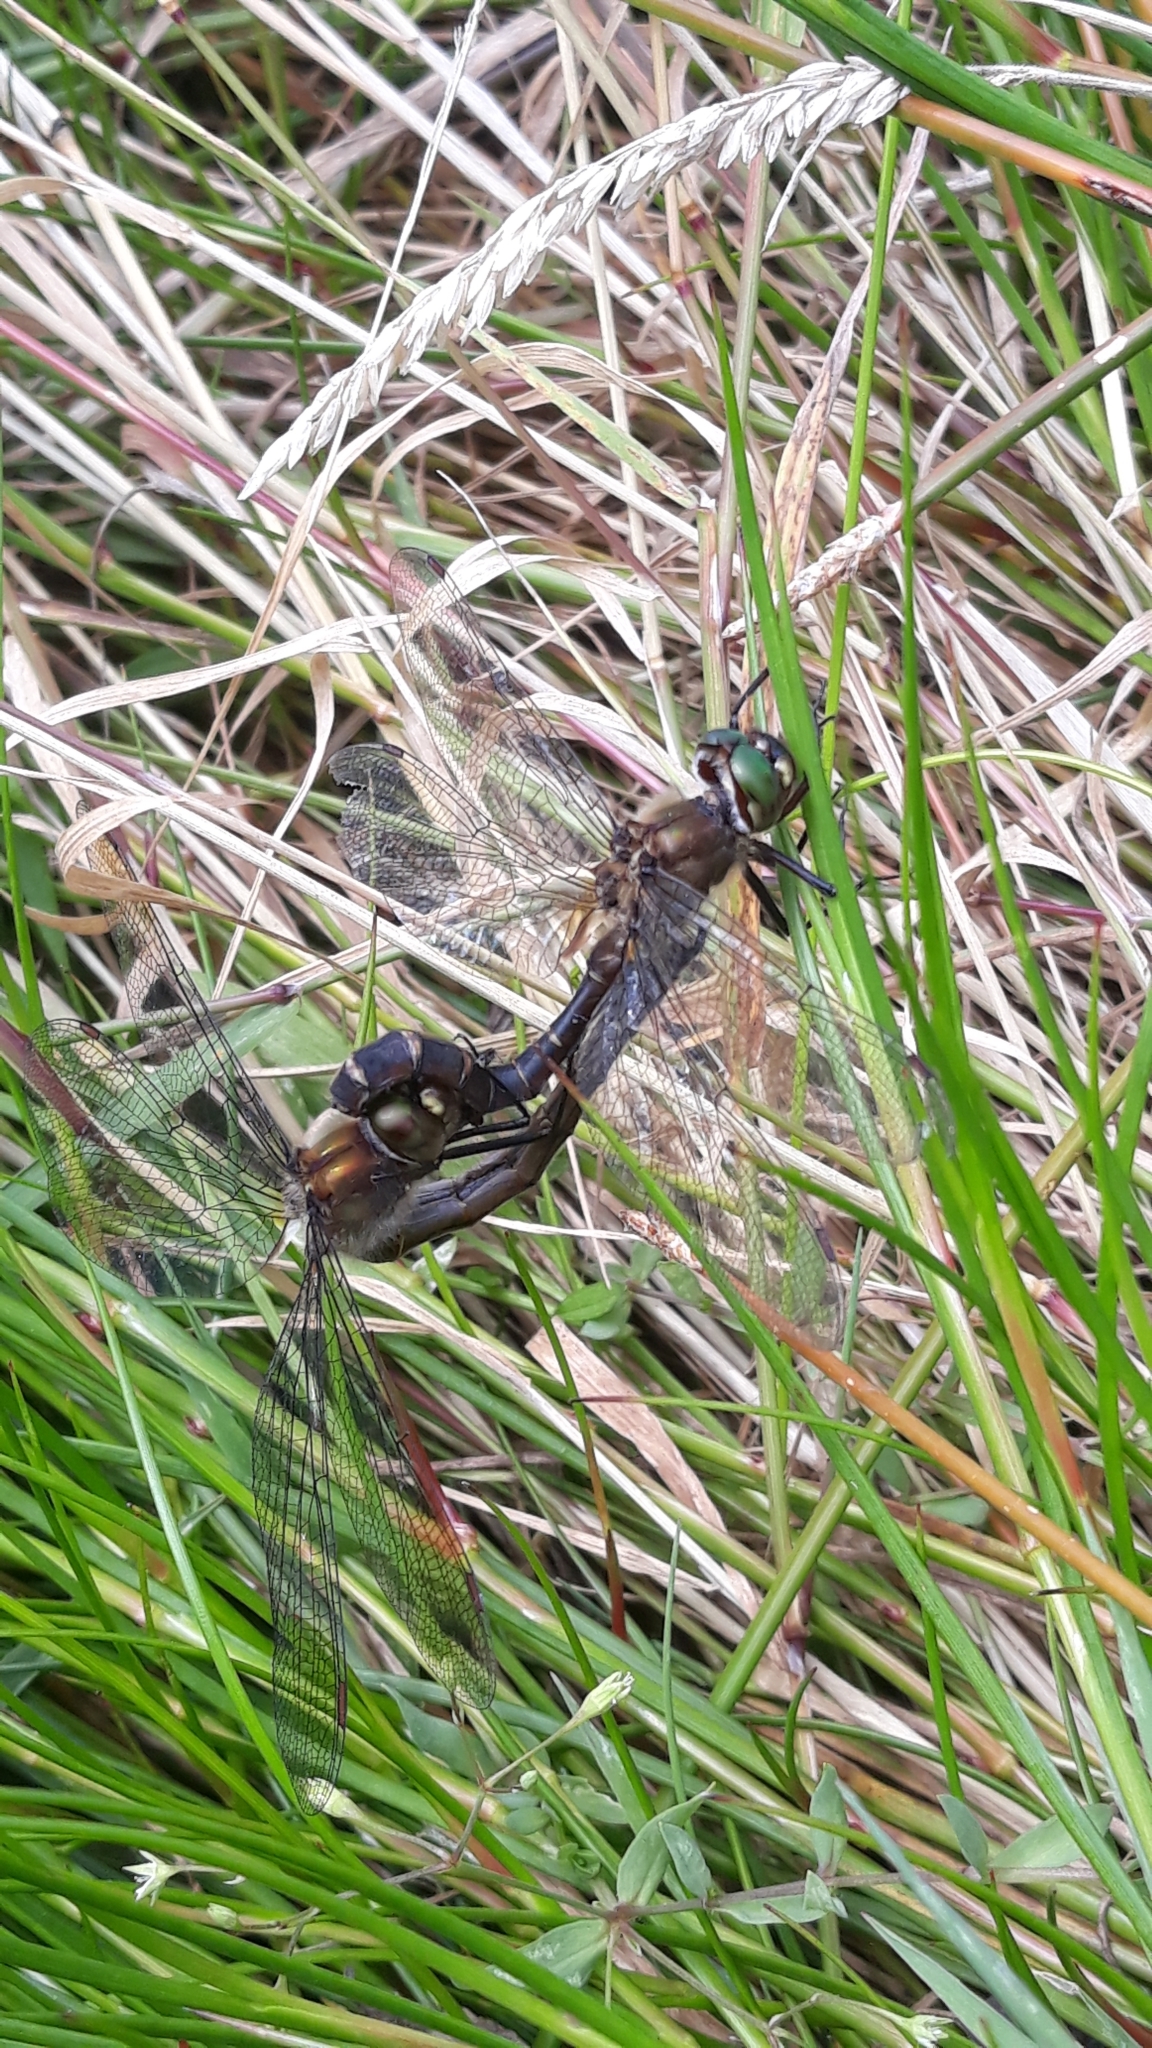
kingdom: Animalia
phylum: Arthropoda
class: Insecta
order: Odonata
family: Corduliidae
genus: Procordulia
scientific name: Procordulia smithii
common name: Ranger dragonfly
